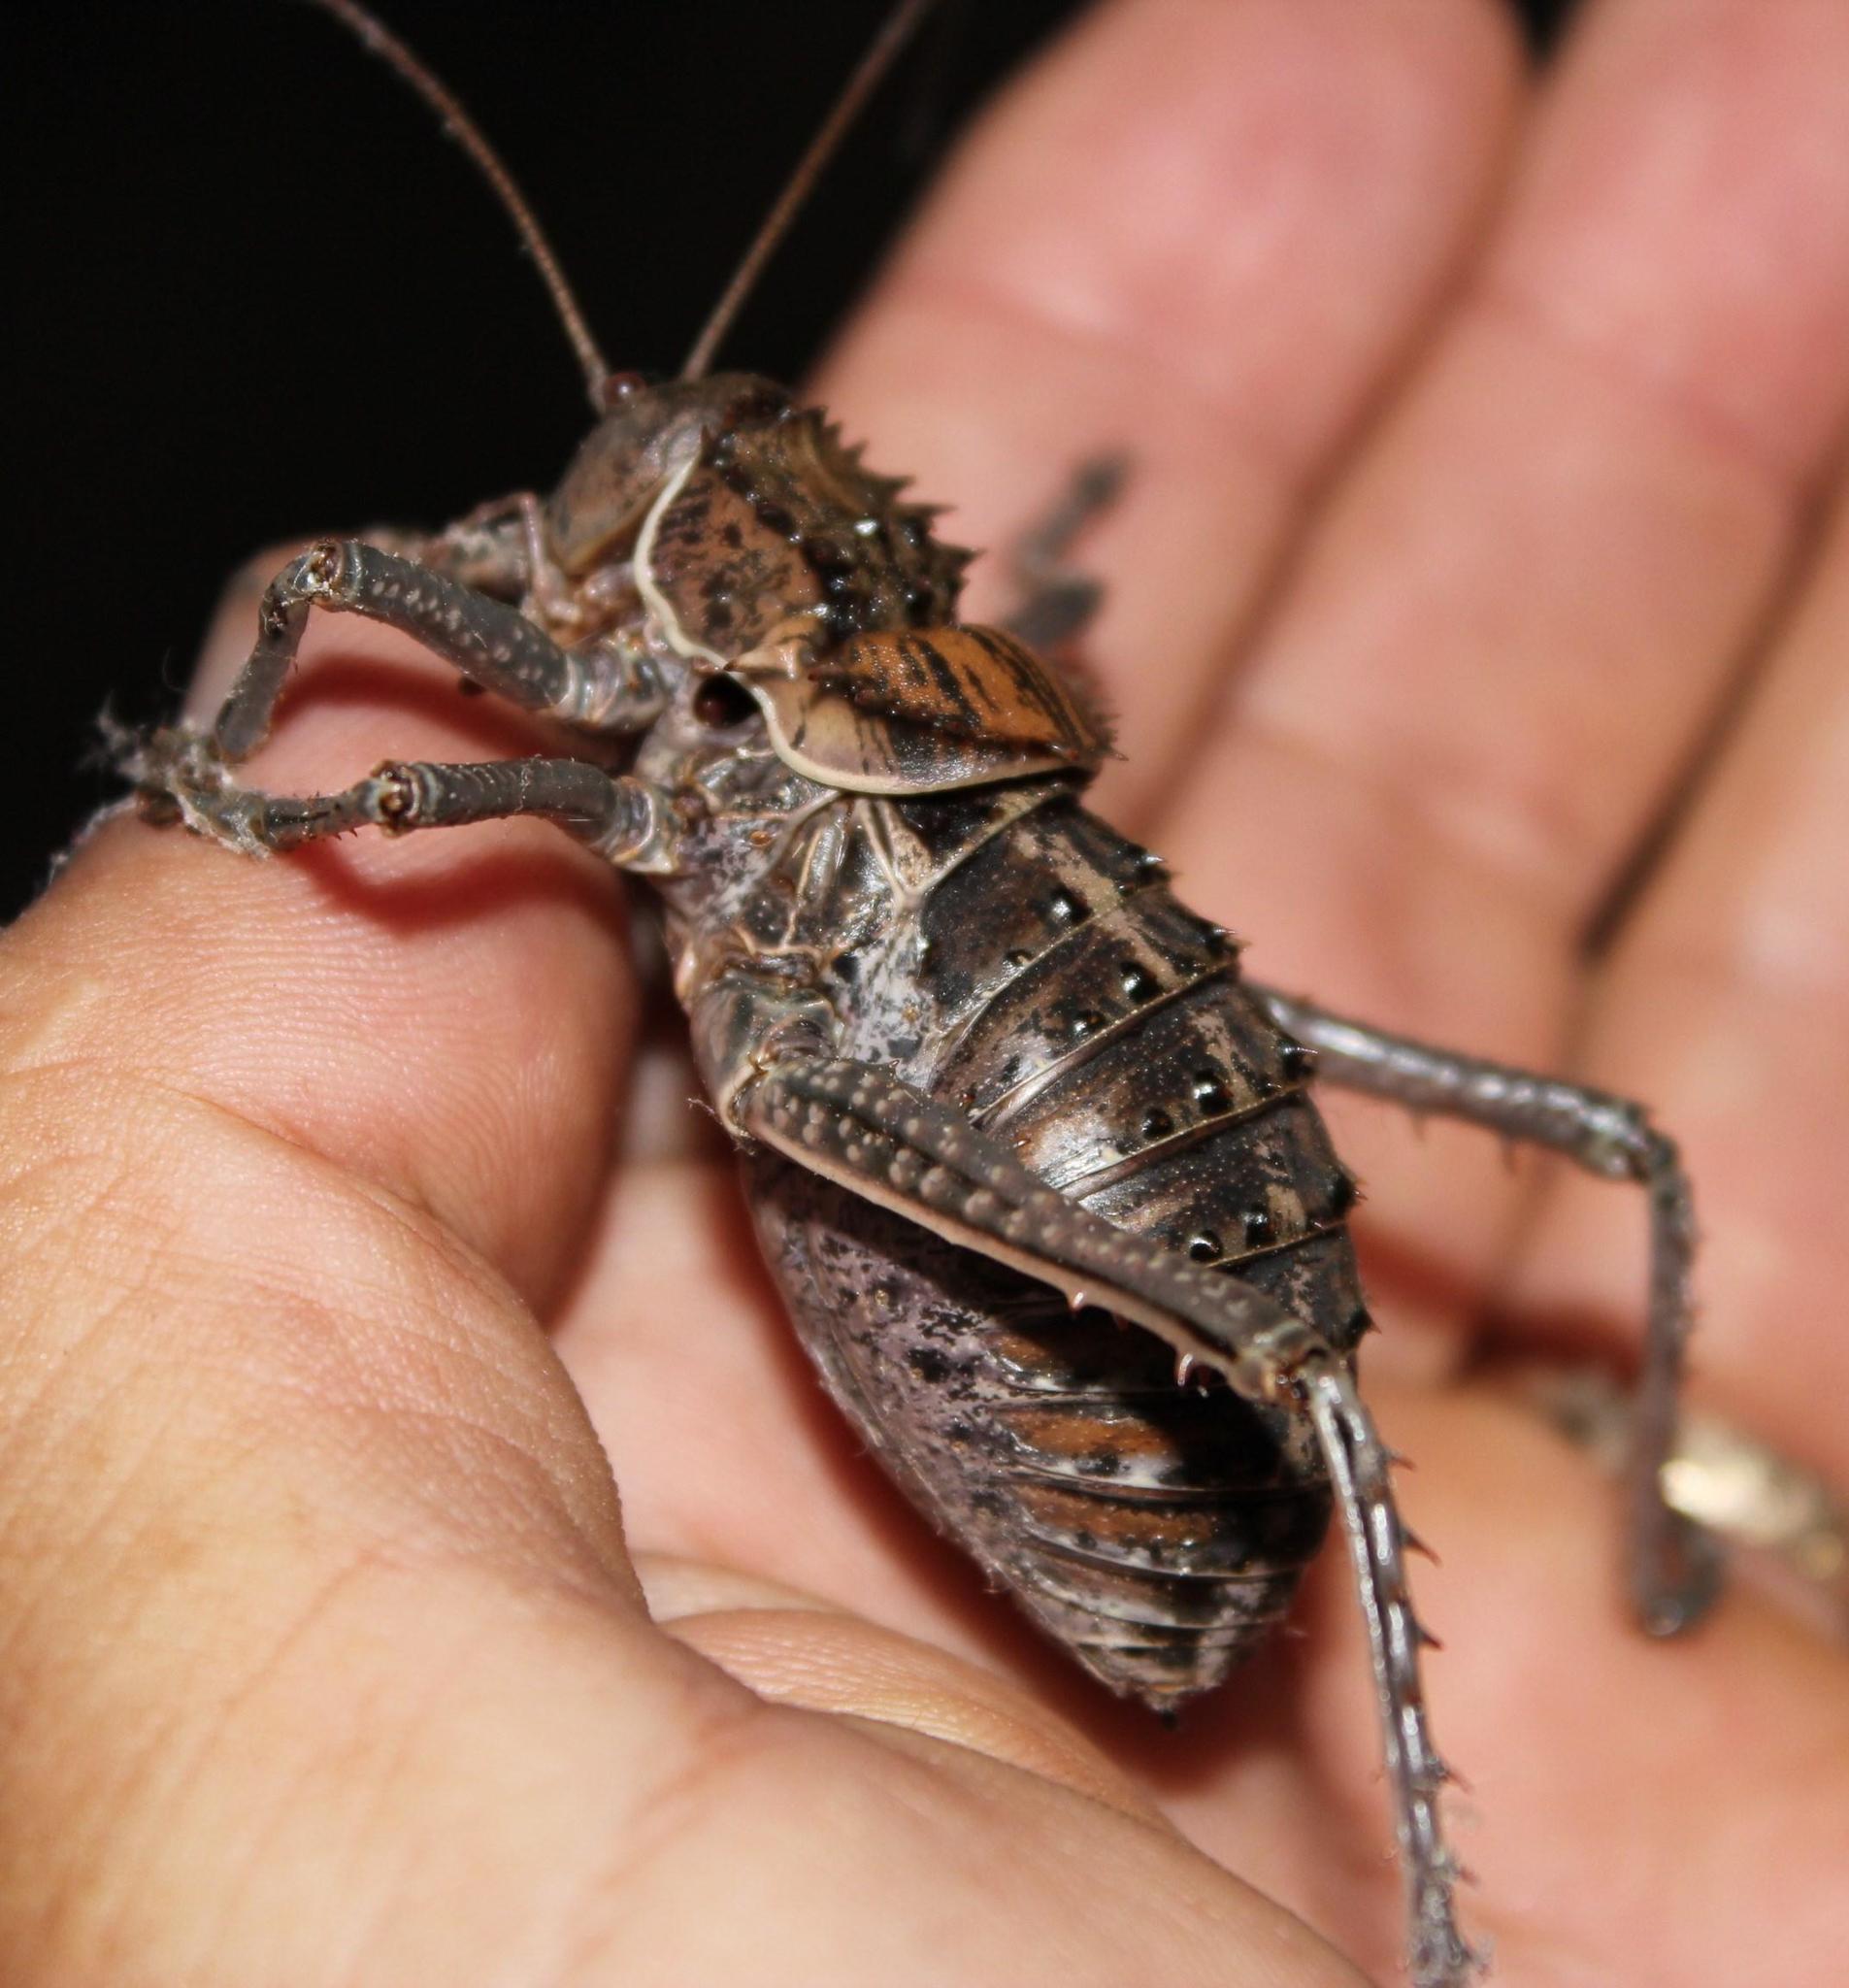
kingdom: Animalia
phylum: Arthropoda
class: Insecta
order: Orthoptera
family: Tettigoniidae
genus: Hetrodes
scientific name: Hetrodes pupus
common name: Koringkriek
